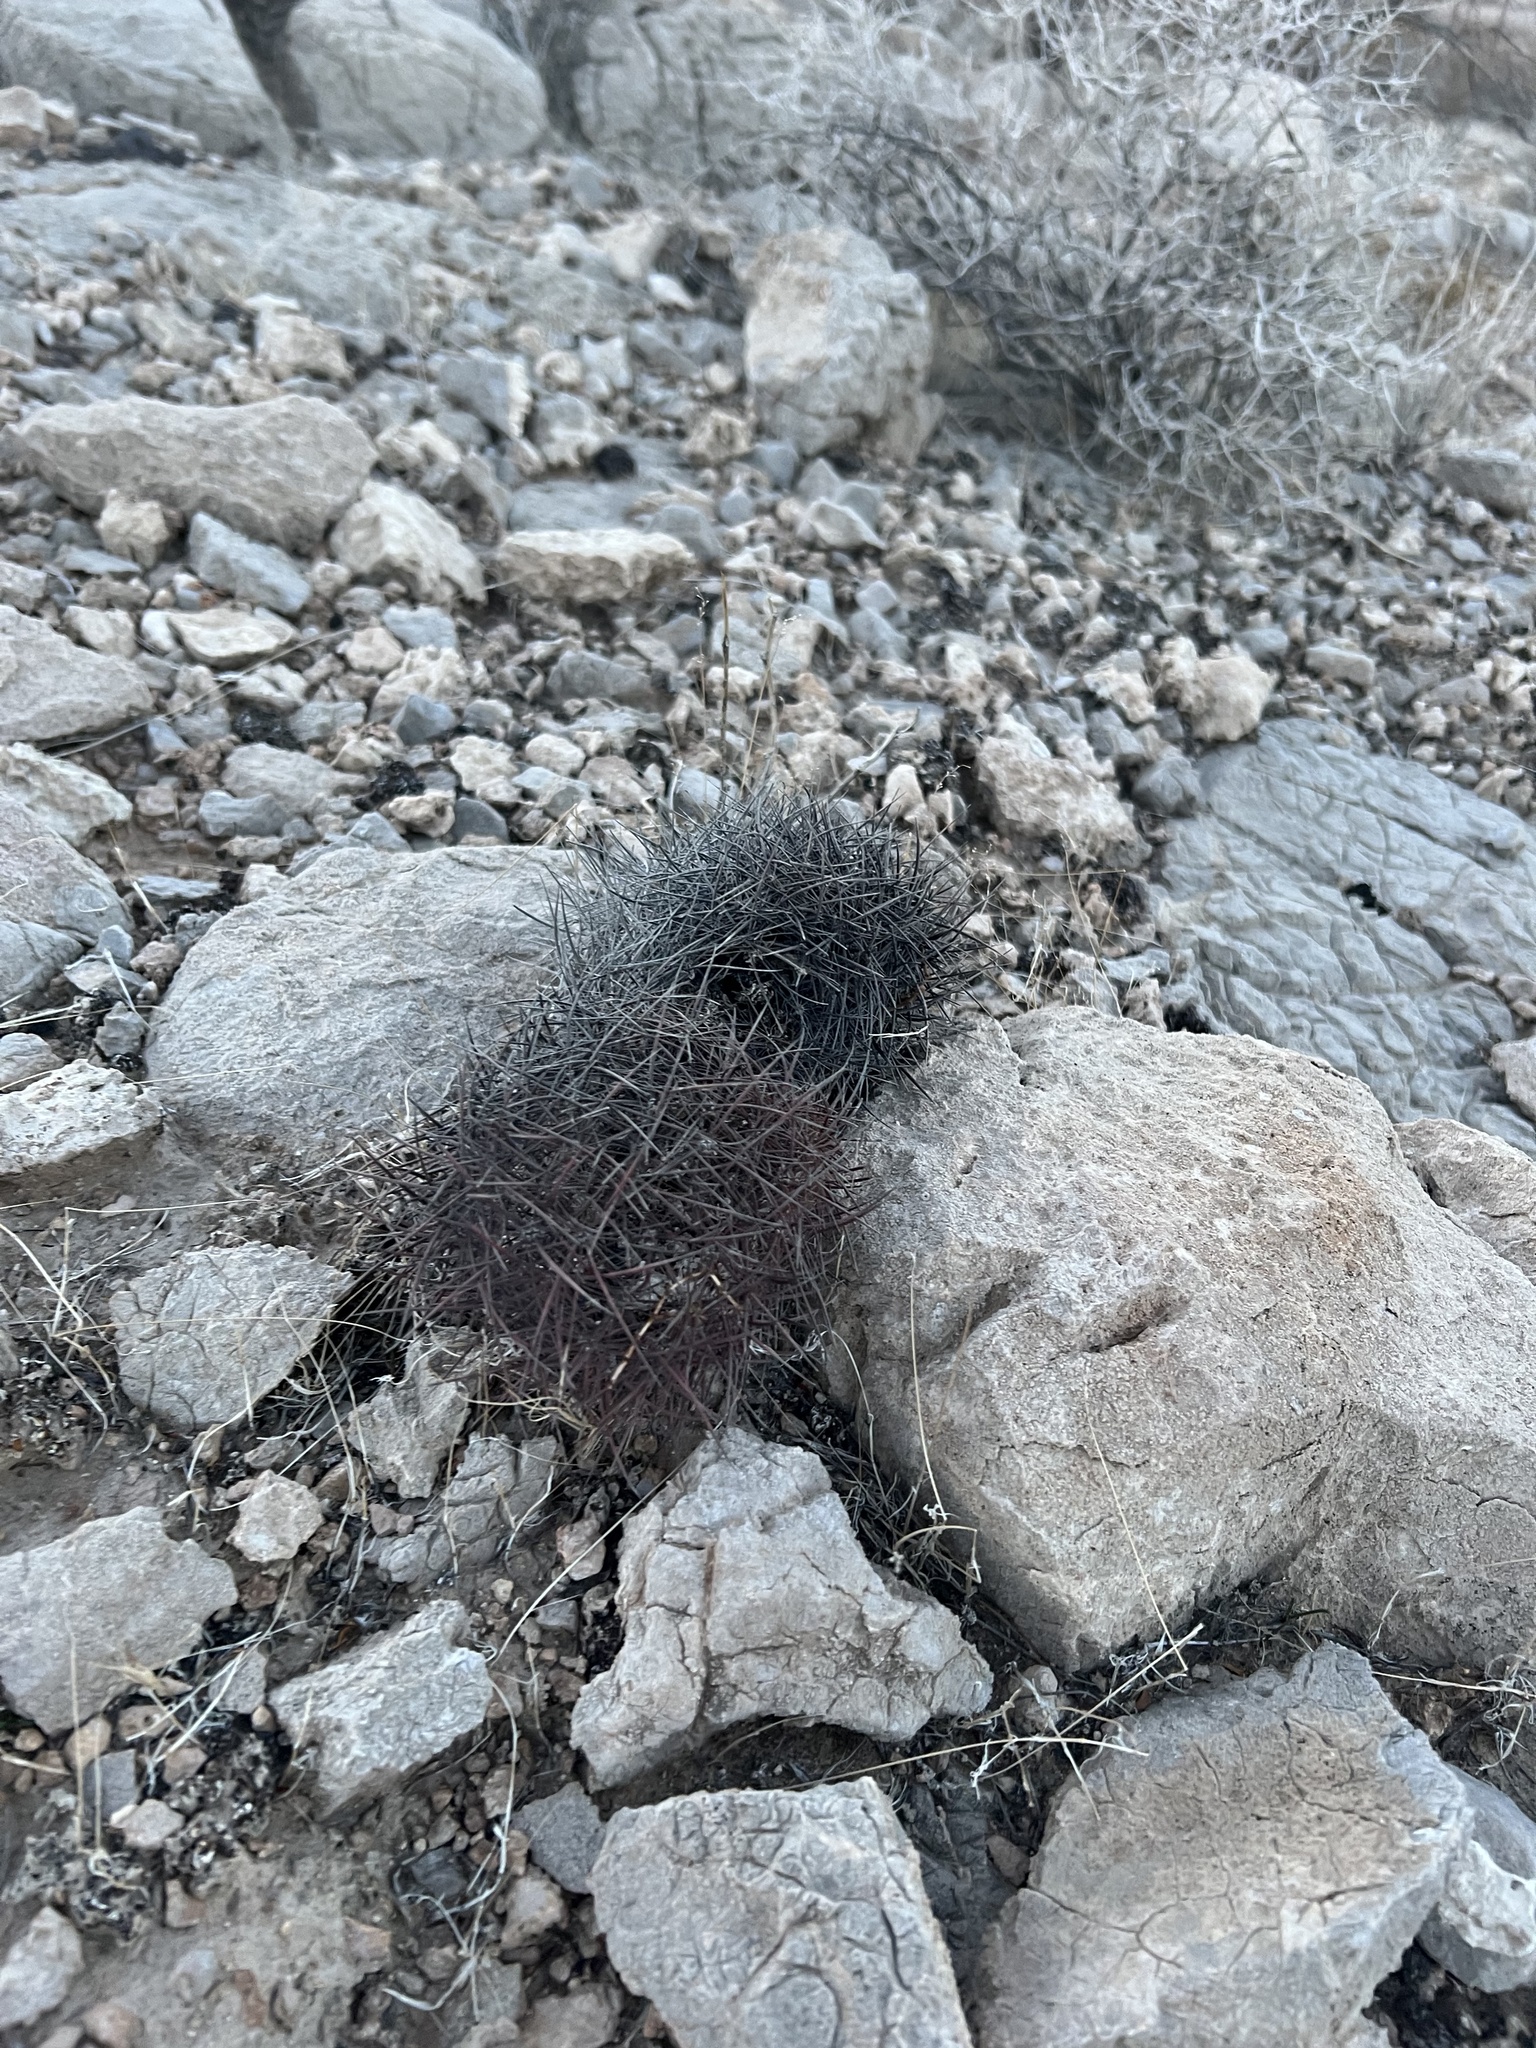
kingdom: Plantae
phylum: Tracheophyta
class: Magnoliopsida
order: Caryophyllales
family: Cactaceae
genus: Sclerocactus
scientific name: Sclerocactus johnsonii
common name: Eight-spine fishhook cactus
